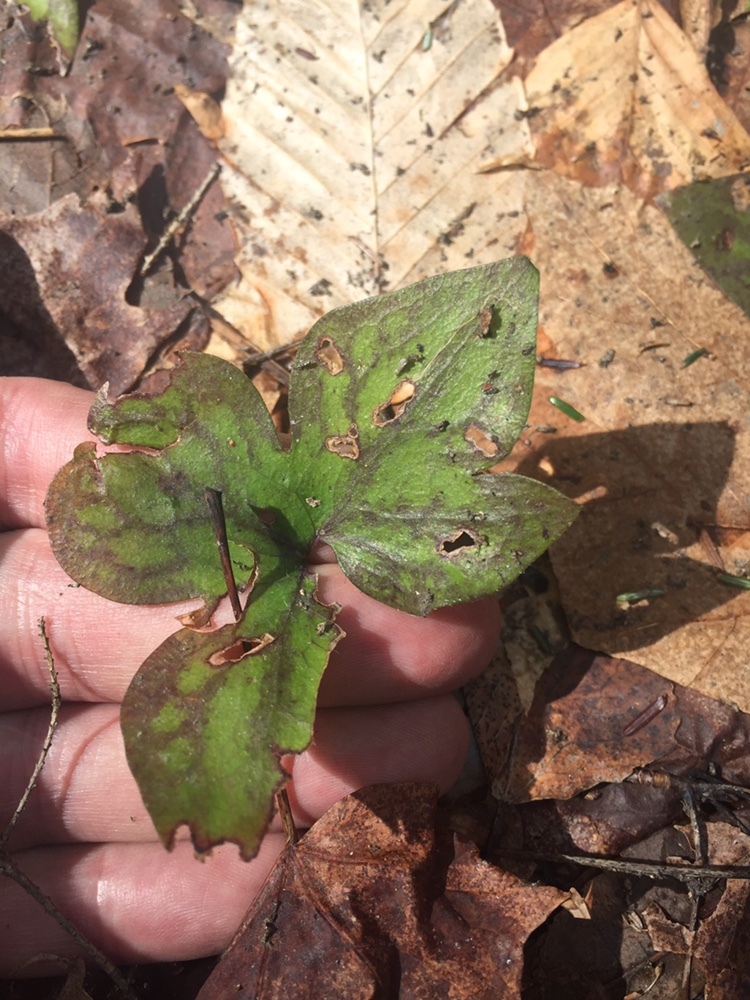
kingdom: Plantae
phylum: Tracheophyta
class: Magnoliopsida
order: Ranunculales
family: Ranunculaceae
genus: Hepatica
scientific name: Hepatica acutiloba
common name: Sharp-lobed hepatica
